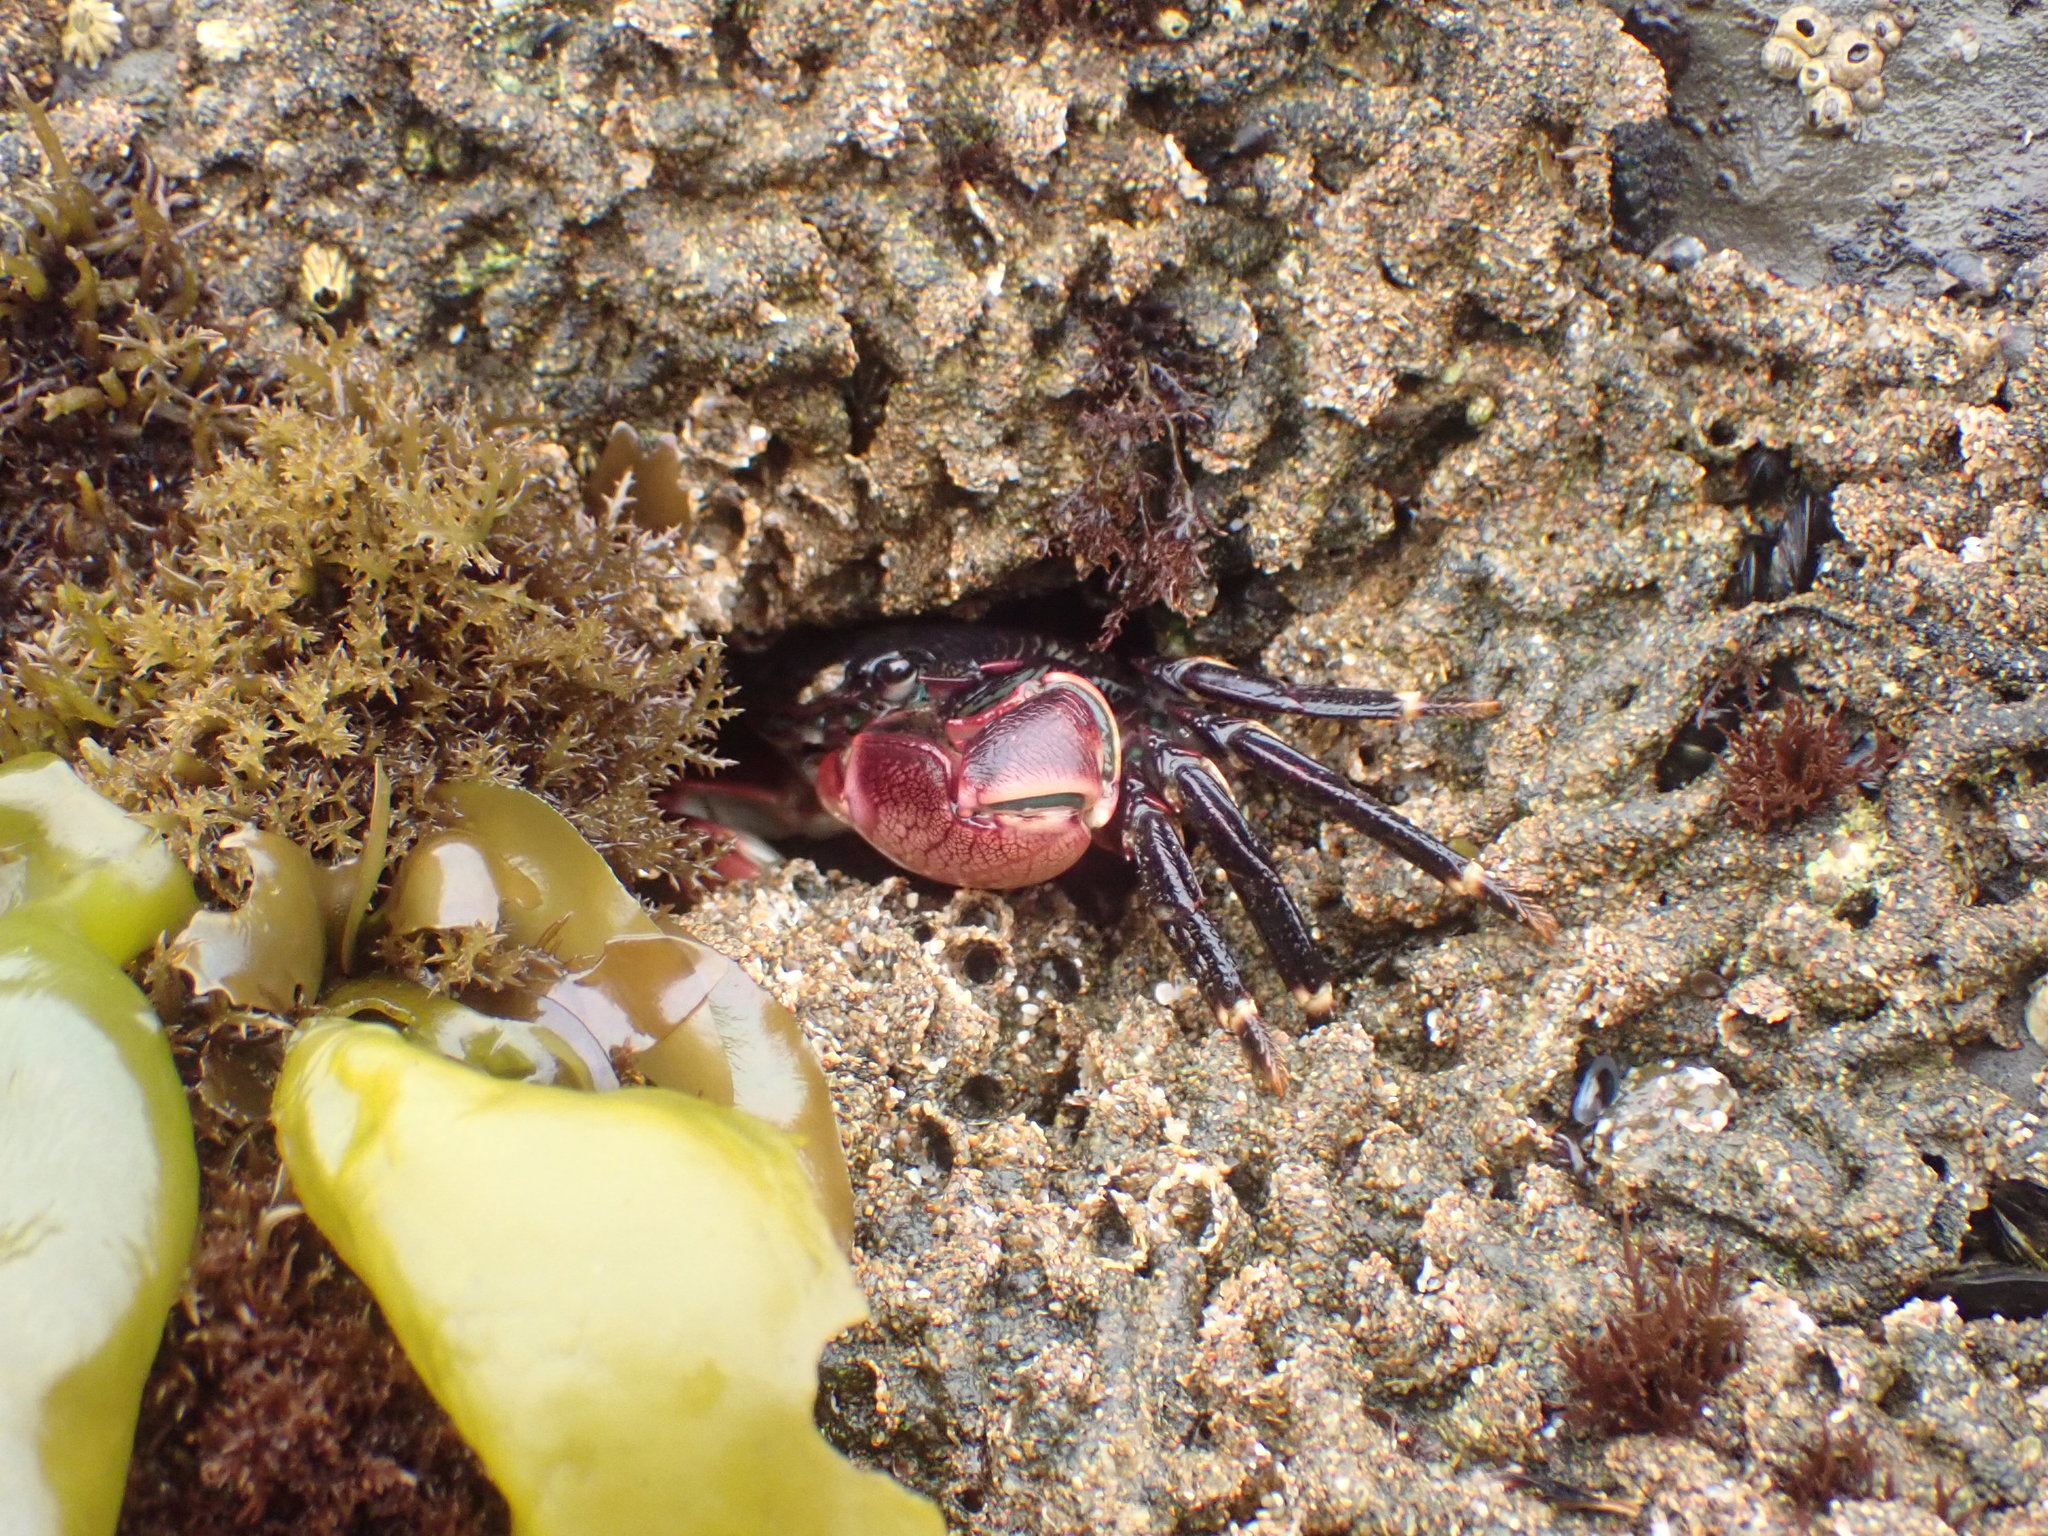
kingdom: Animalia
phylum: Arthropoda
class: Malacostraca
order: Decapoda
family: Grapsidae
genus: Pachygrapsus
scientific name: Pachygrapsus crassipes
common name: Striped shore crab
